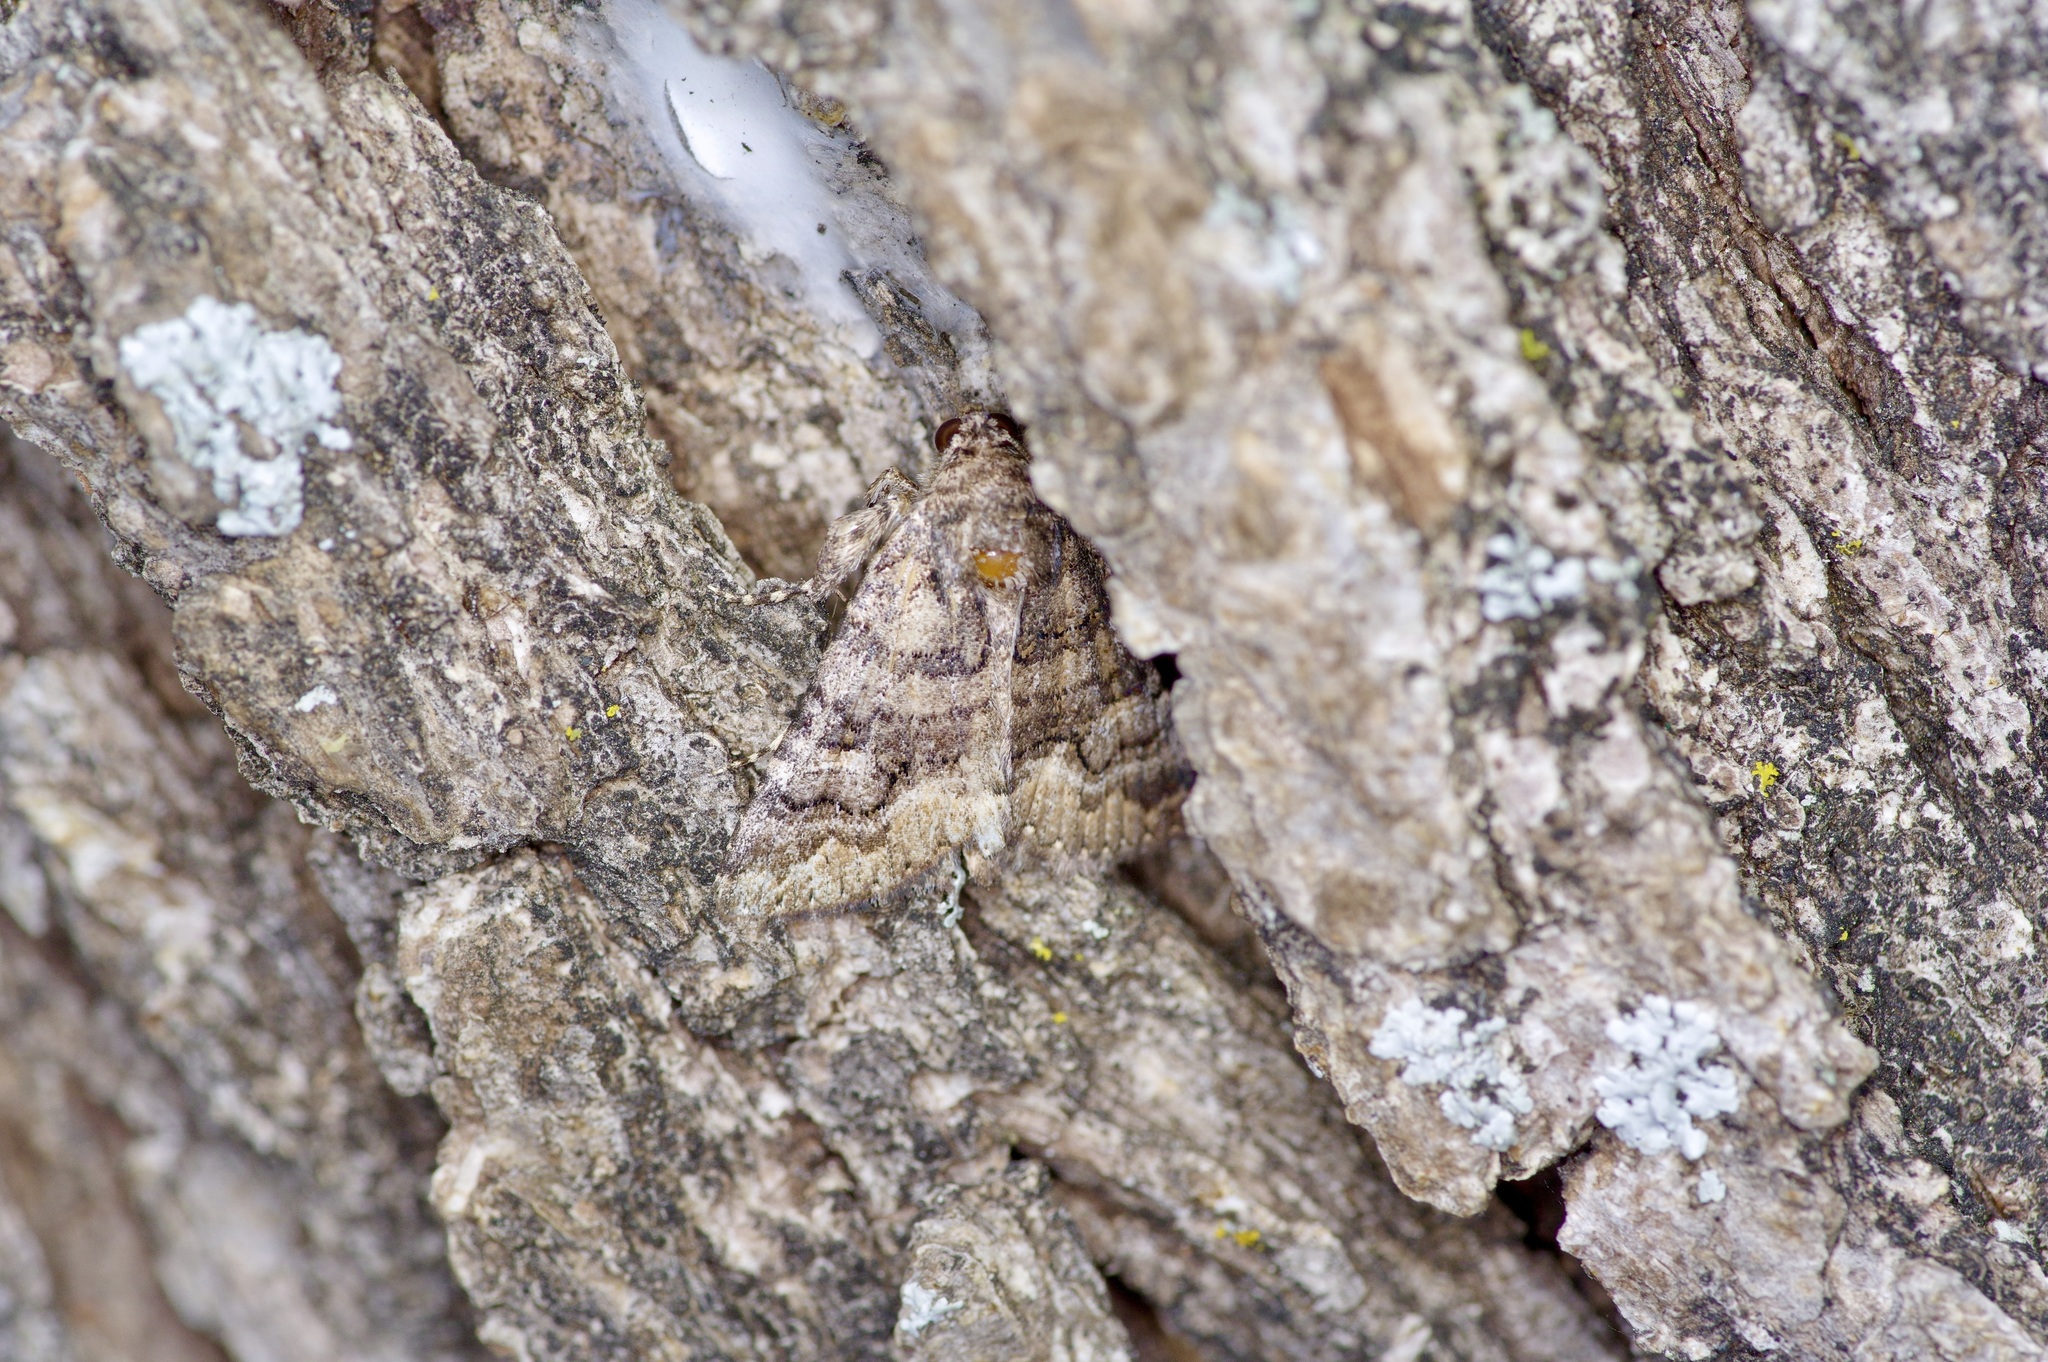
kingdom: Animalia
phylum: Arthropoda
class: Insecta
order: Lepidoptera
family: Erebidae
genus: Elousa
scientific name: Elousa mima
